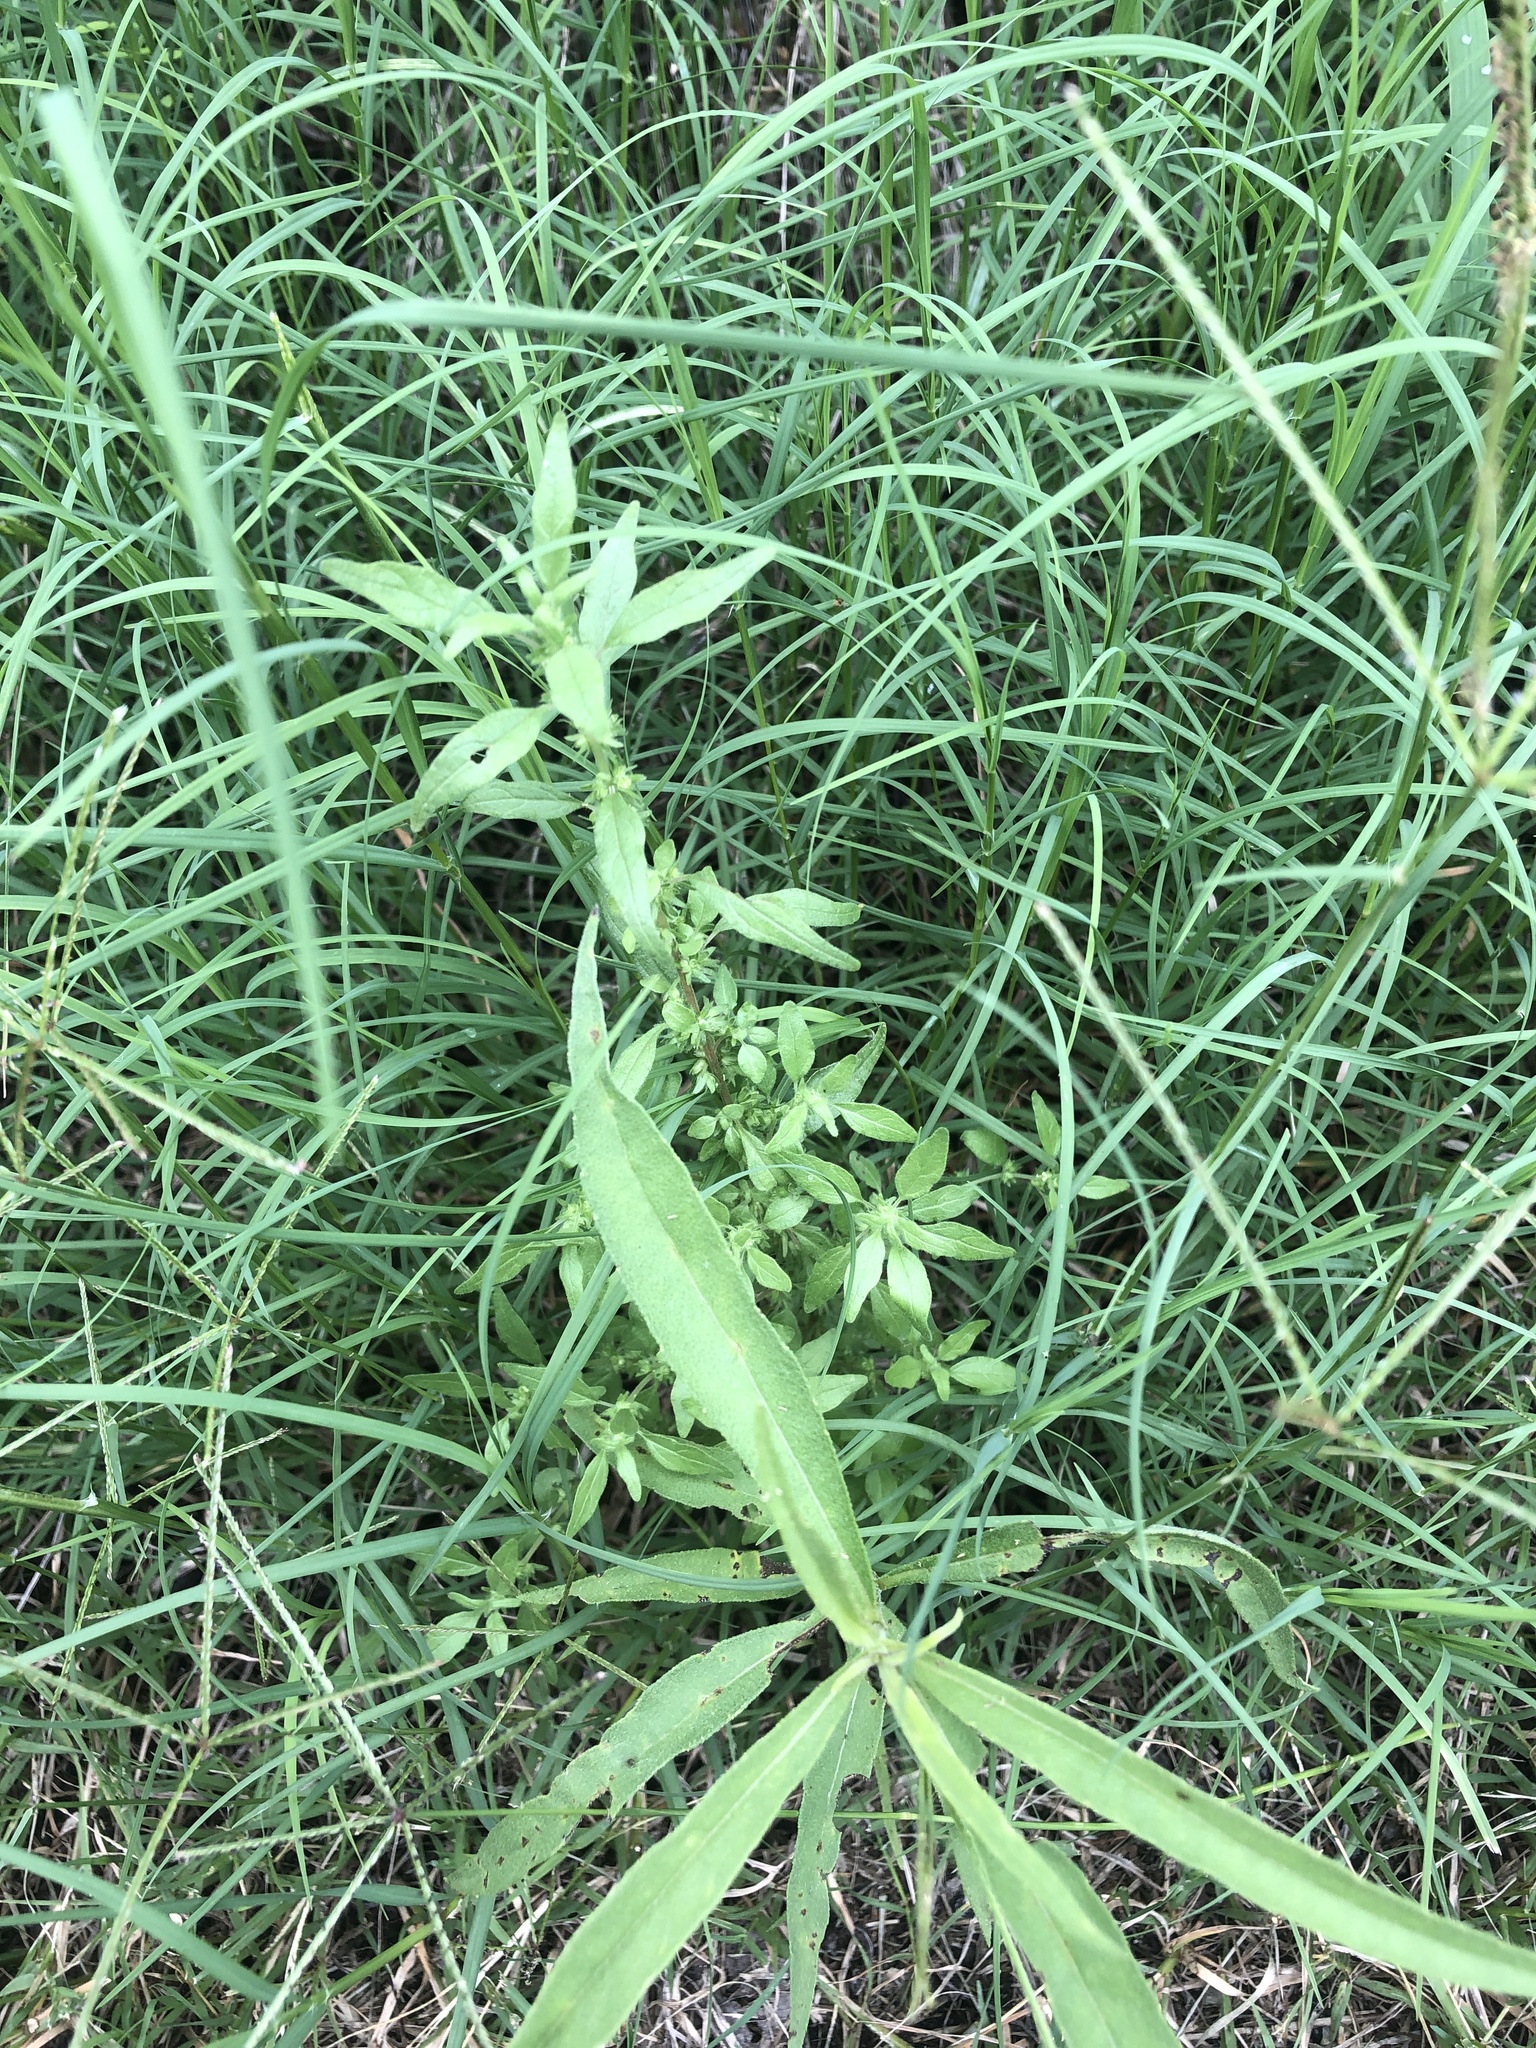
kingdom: Plantae
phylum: Tracheophyta
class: Magnoliopsida
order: Rosales
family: Urticaceae
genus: Parietaria
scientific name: Parietaria pensylvanica
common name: Pennsylvania pellitory
